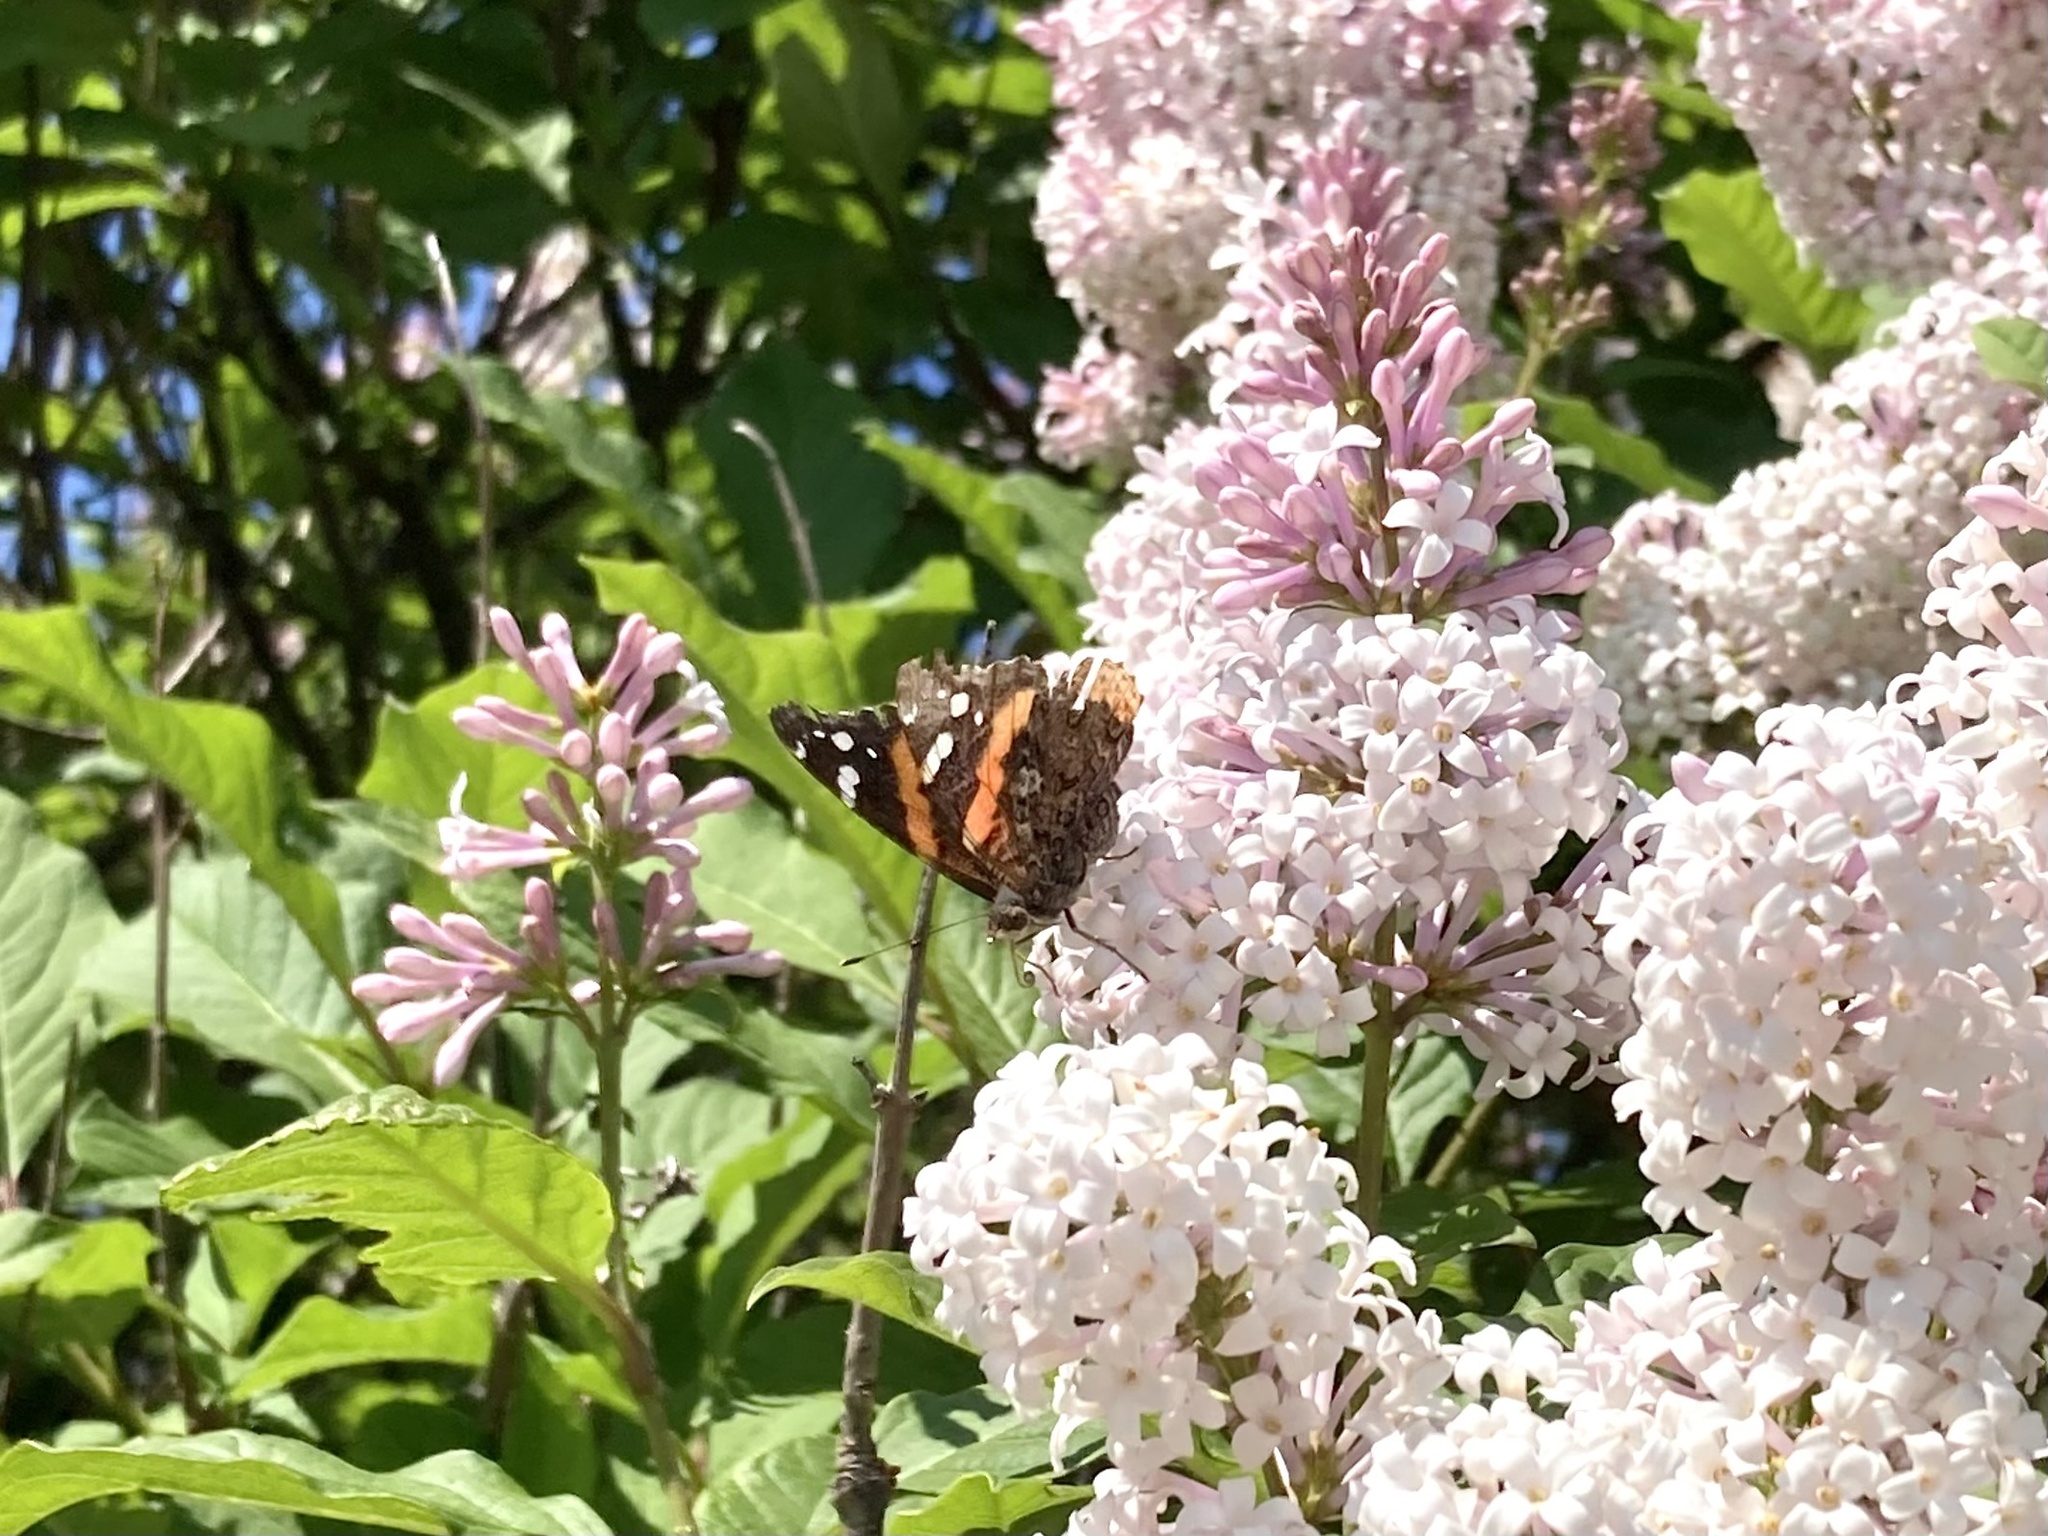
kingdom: Animalia
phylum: Arthropoda
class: Insecta
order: Lepidoptera
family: Nymphalidae
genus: Vanessa
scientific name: Vanessa atalanta
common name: Red admiral
